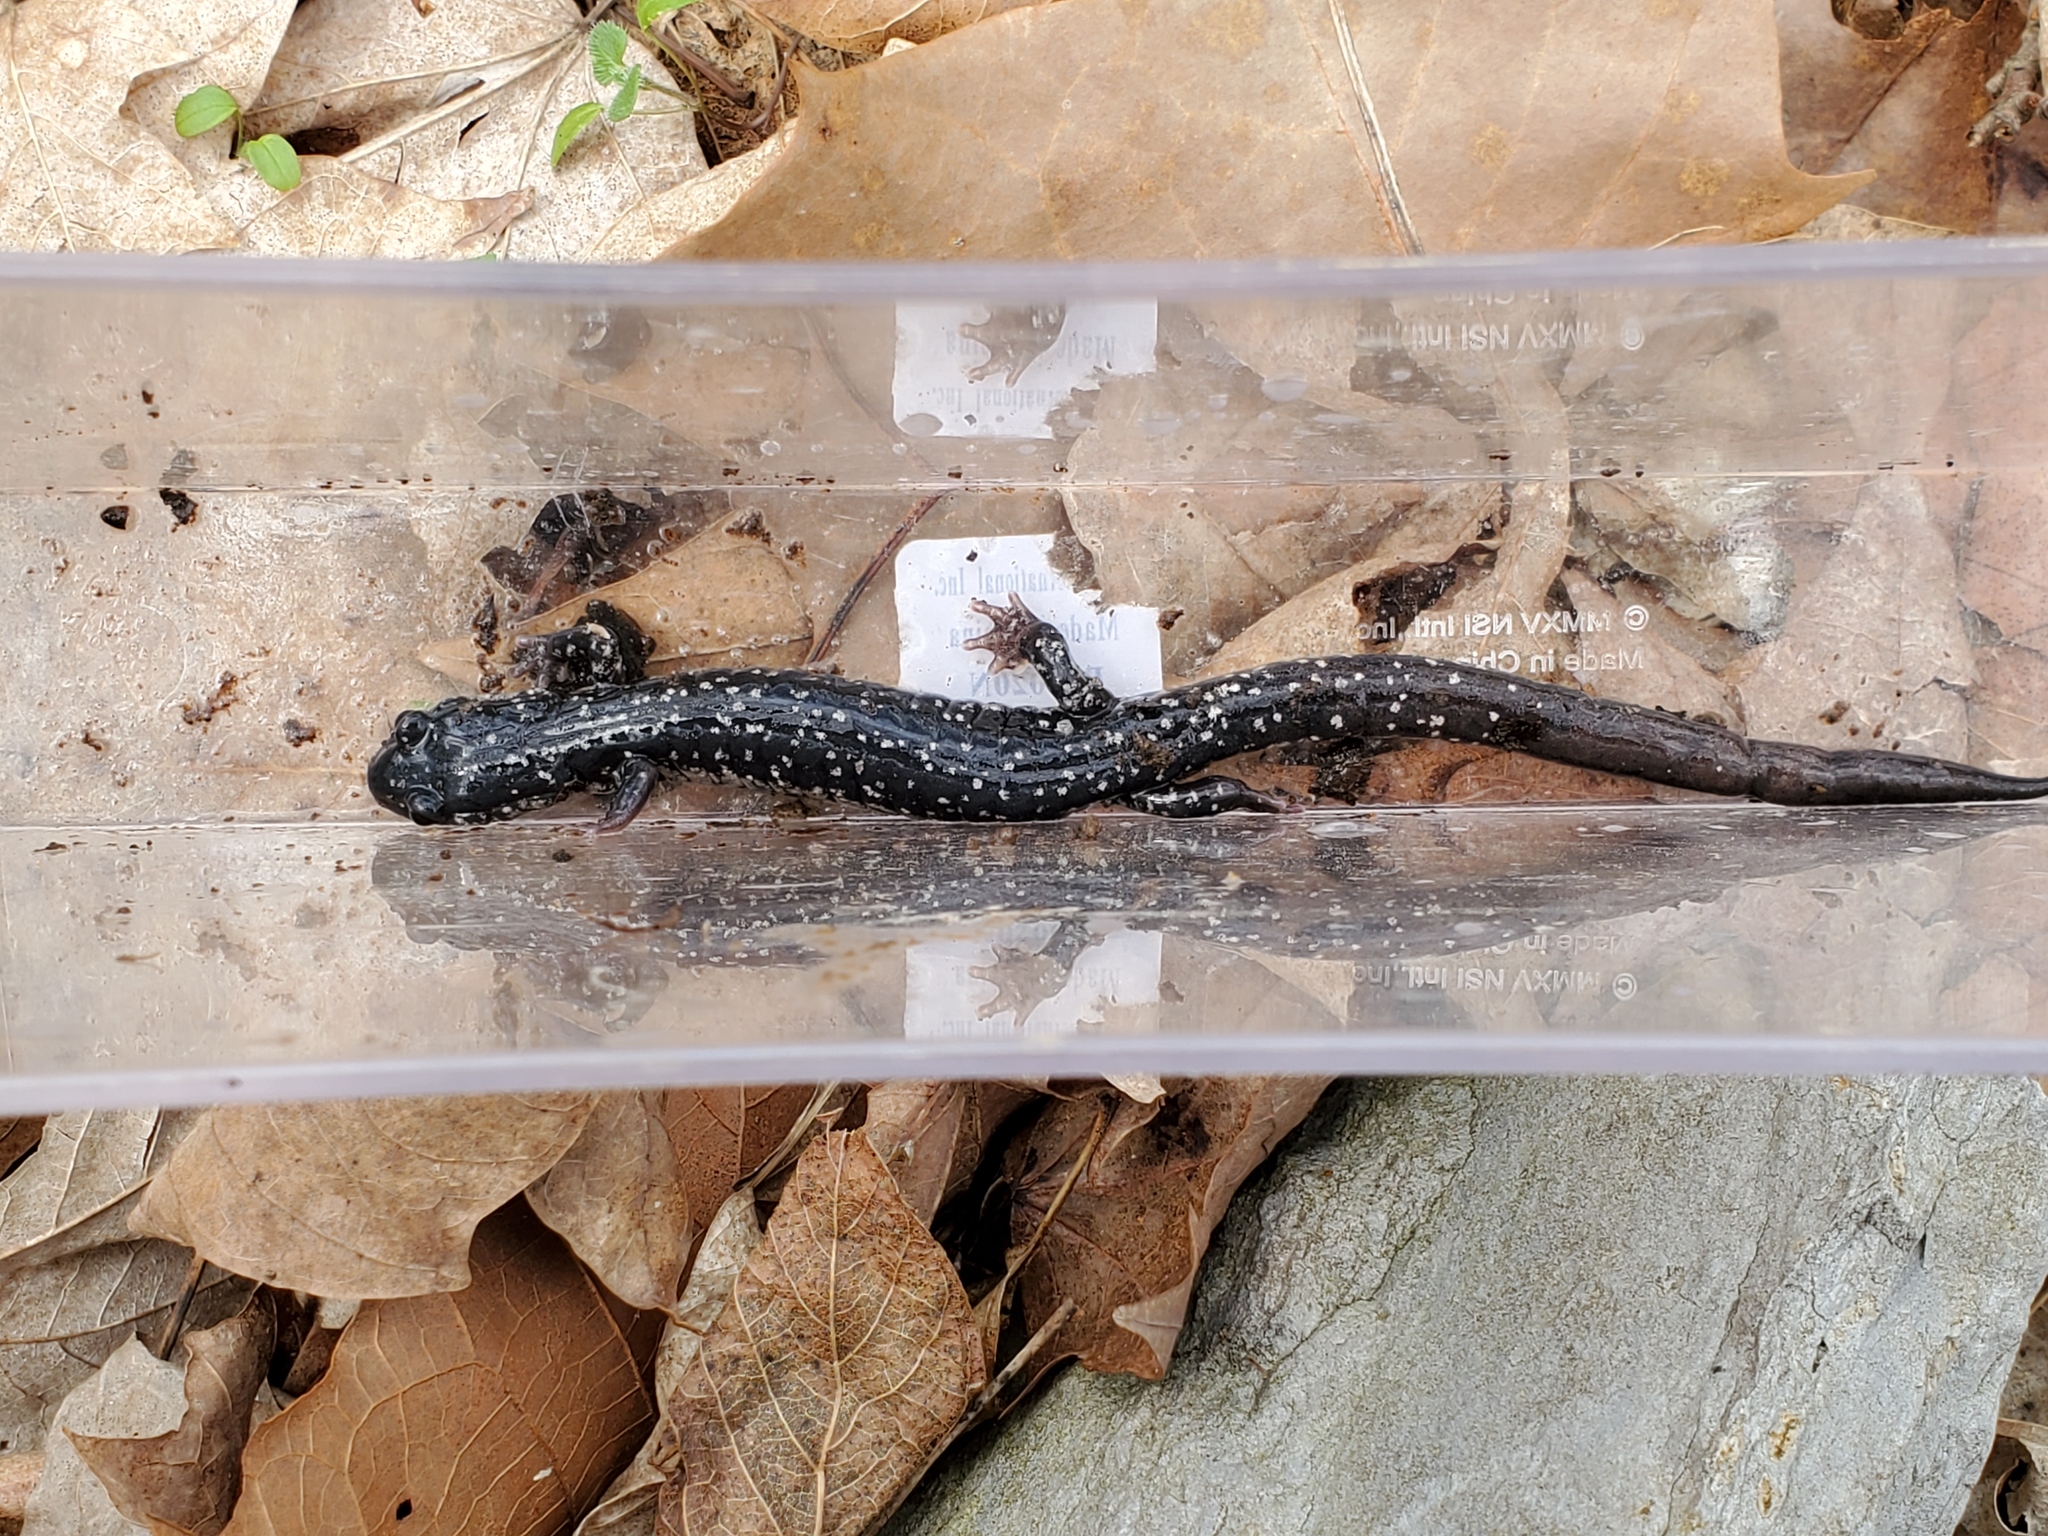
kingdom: Animalia
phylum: Chordata
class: Amphibia
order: Caudata
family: Plethodontidae
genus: Plethodon
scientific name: Plethodon glutinosus
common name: Northern slimy salamander
